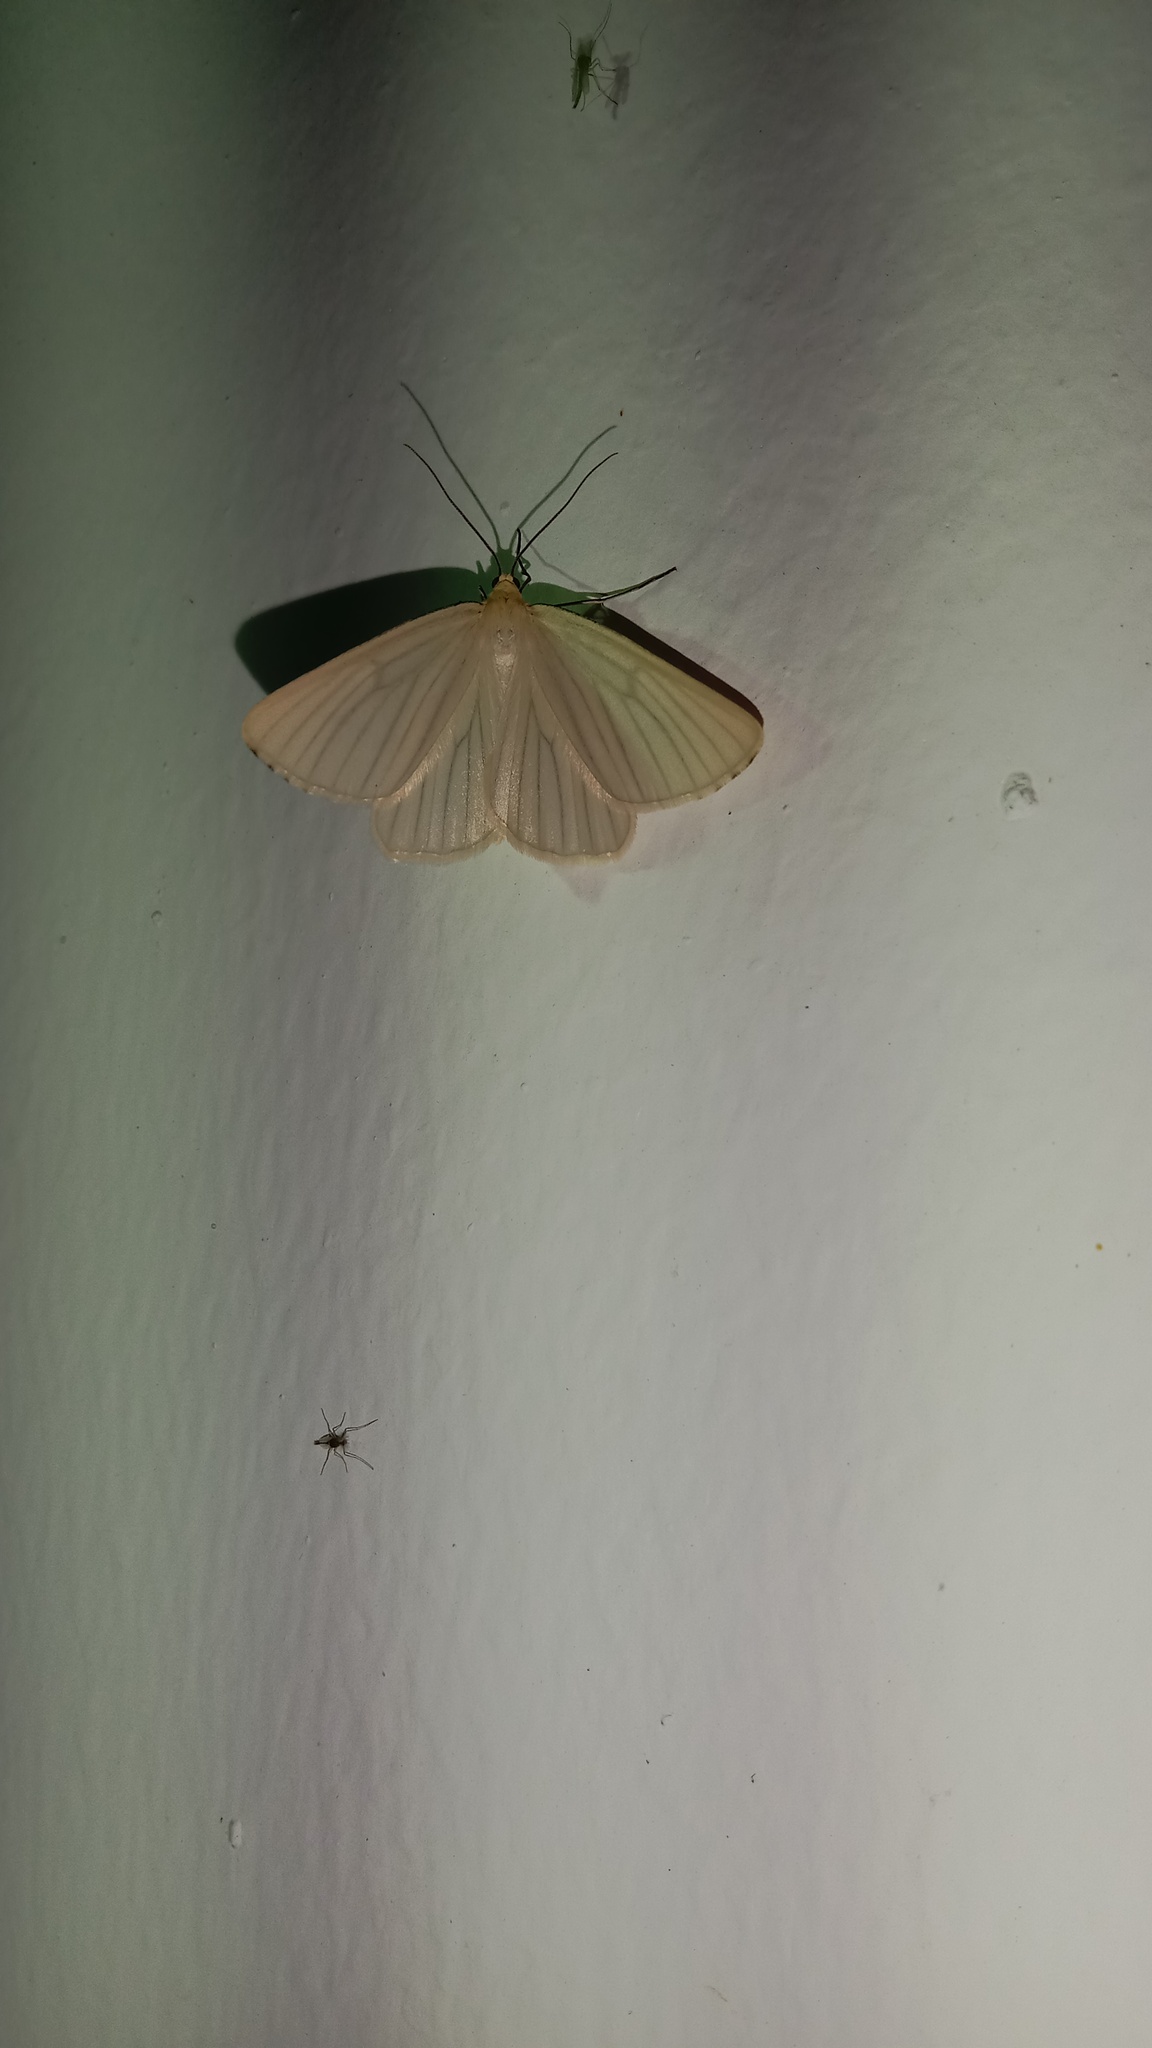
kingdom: Animalia
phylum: Arthropoda
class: Insecta
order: Lepidoptera
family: Geometridae
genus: Siona
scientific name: Siona lineata
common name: Black-veined moth
